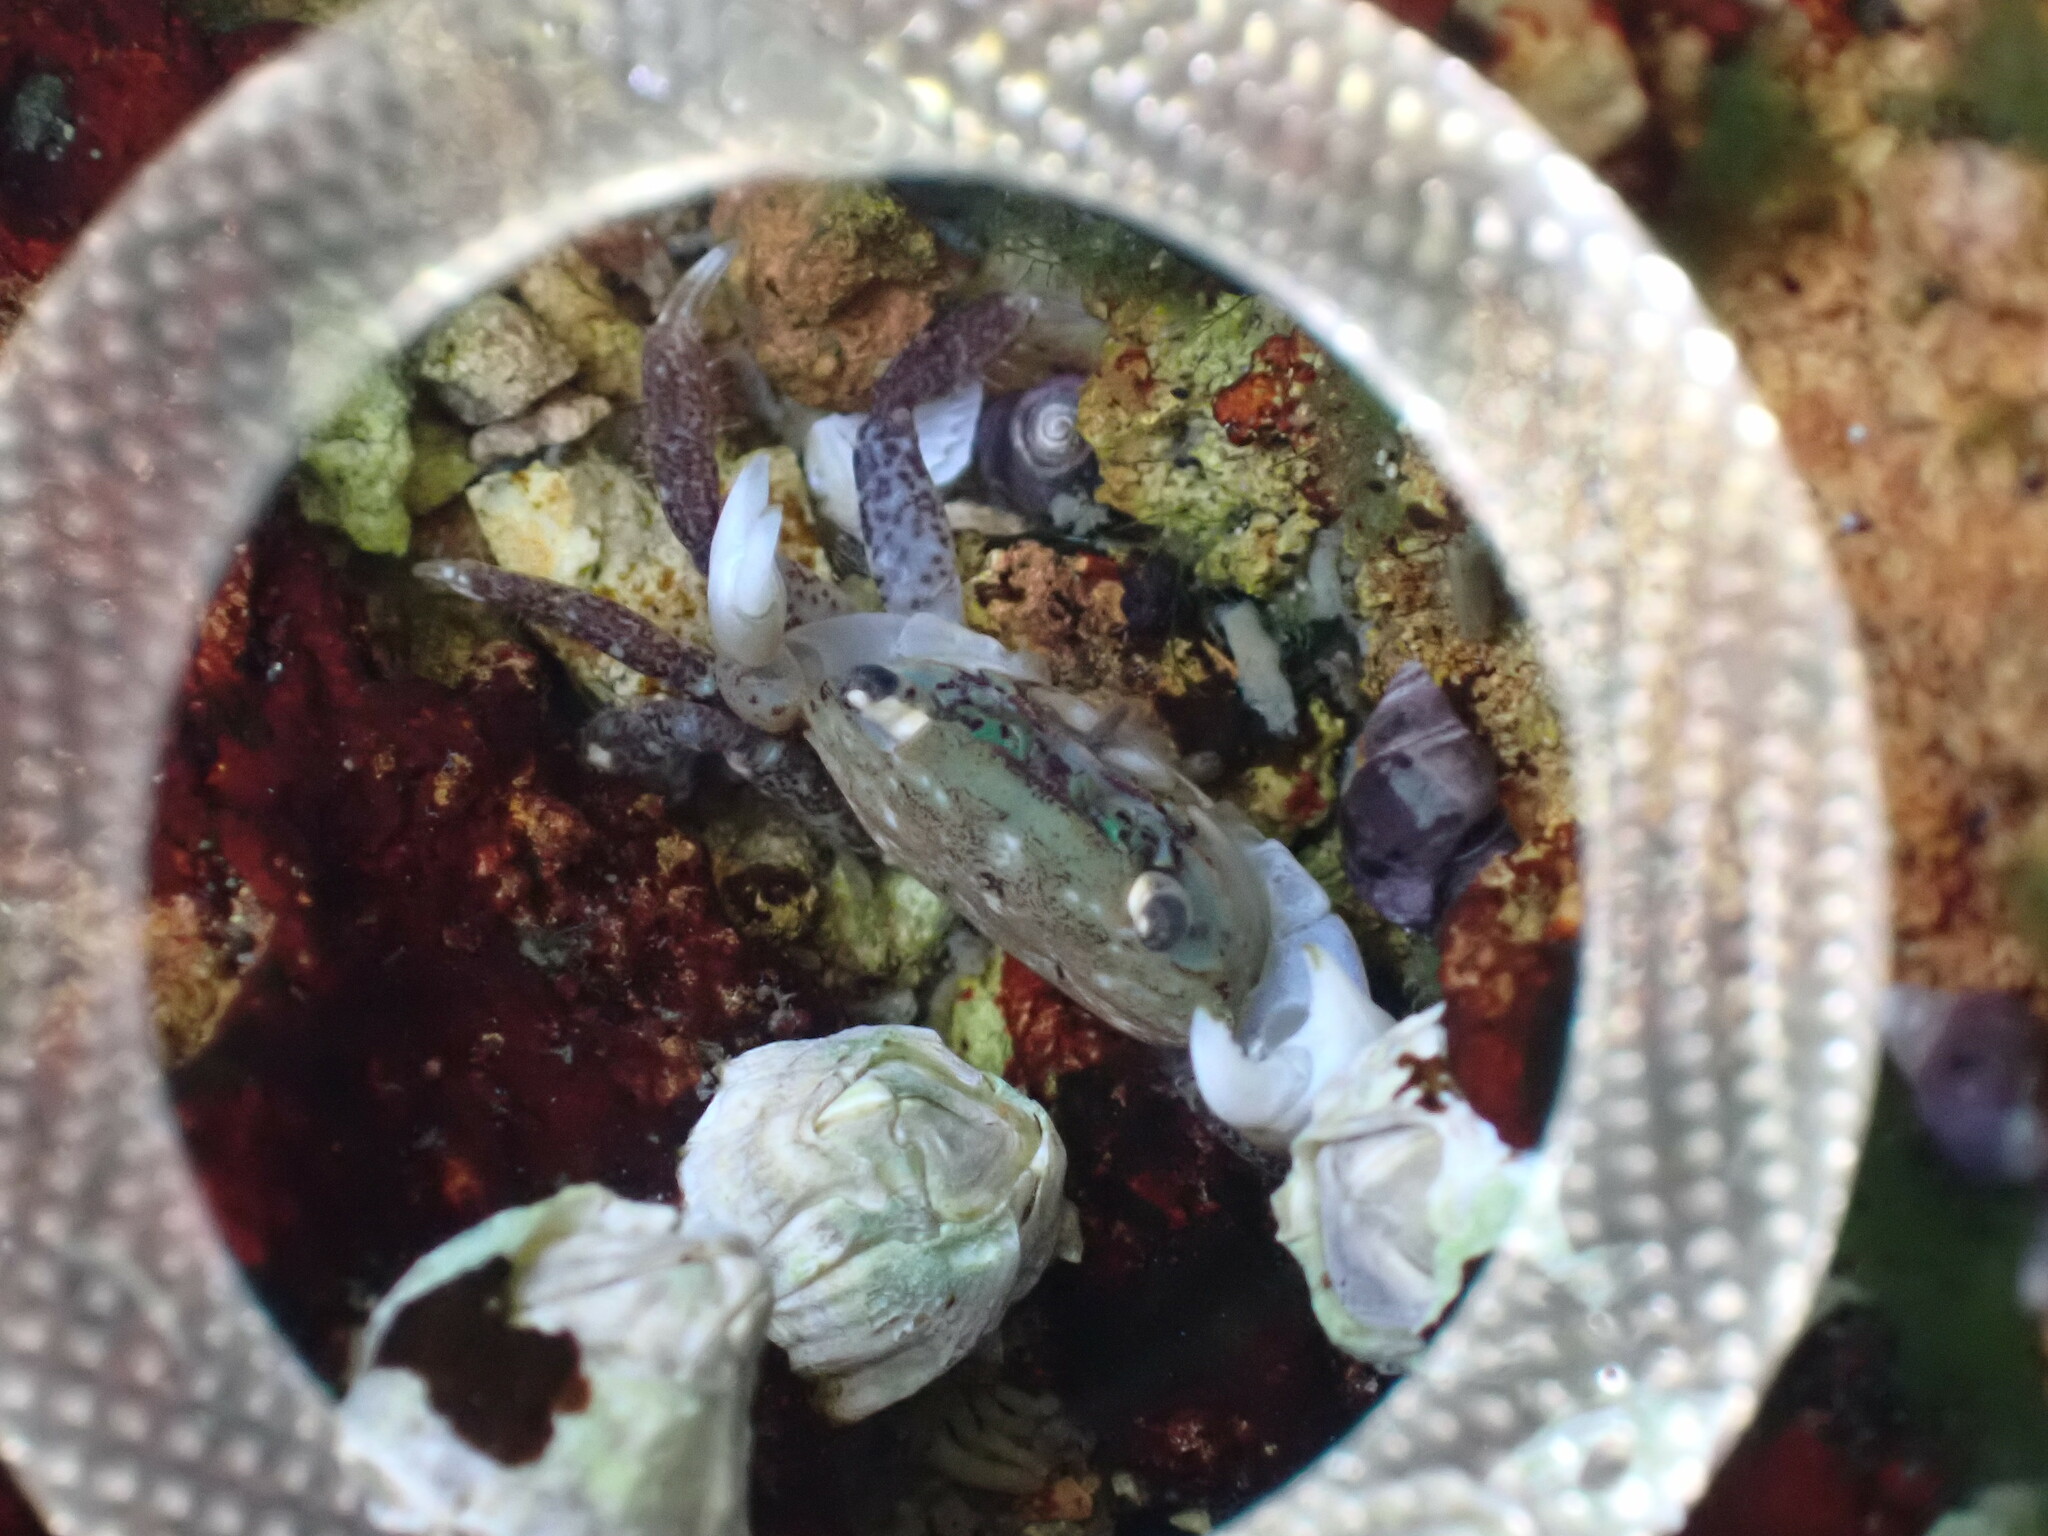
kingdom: Animalia
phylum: Arthropoda
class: Malacostraca
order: Decapoda
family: Varunidae
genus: Hemigrapsus
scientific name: Hemigrapsus oregonensis
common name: Yellow shore crab
